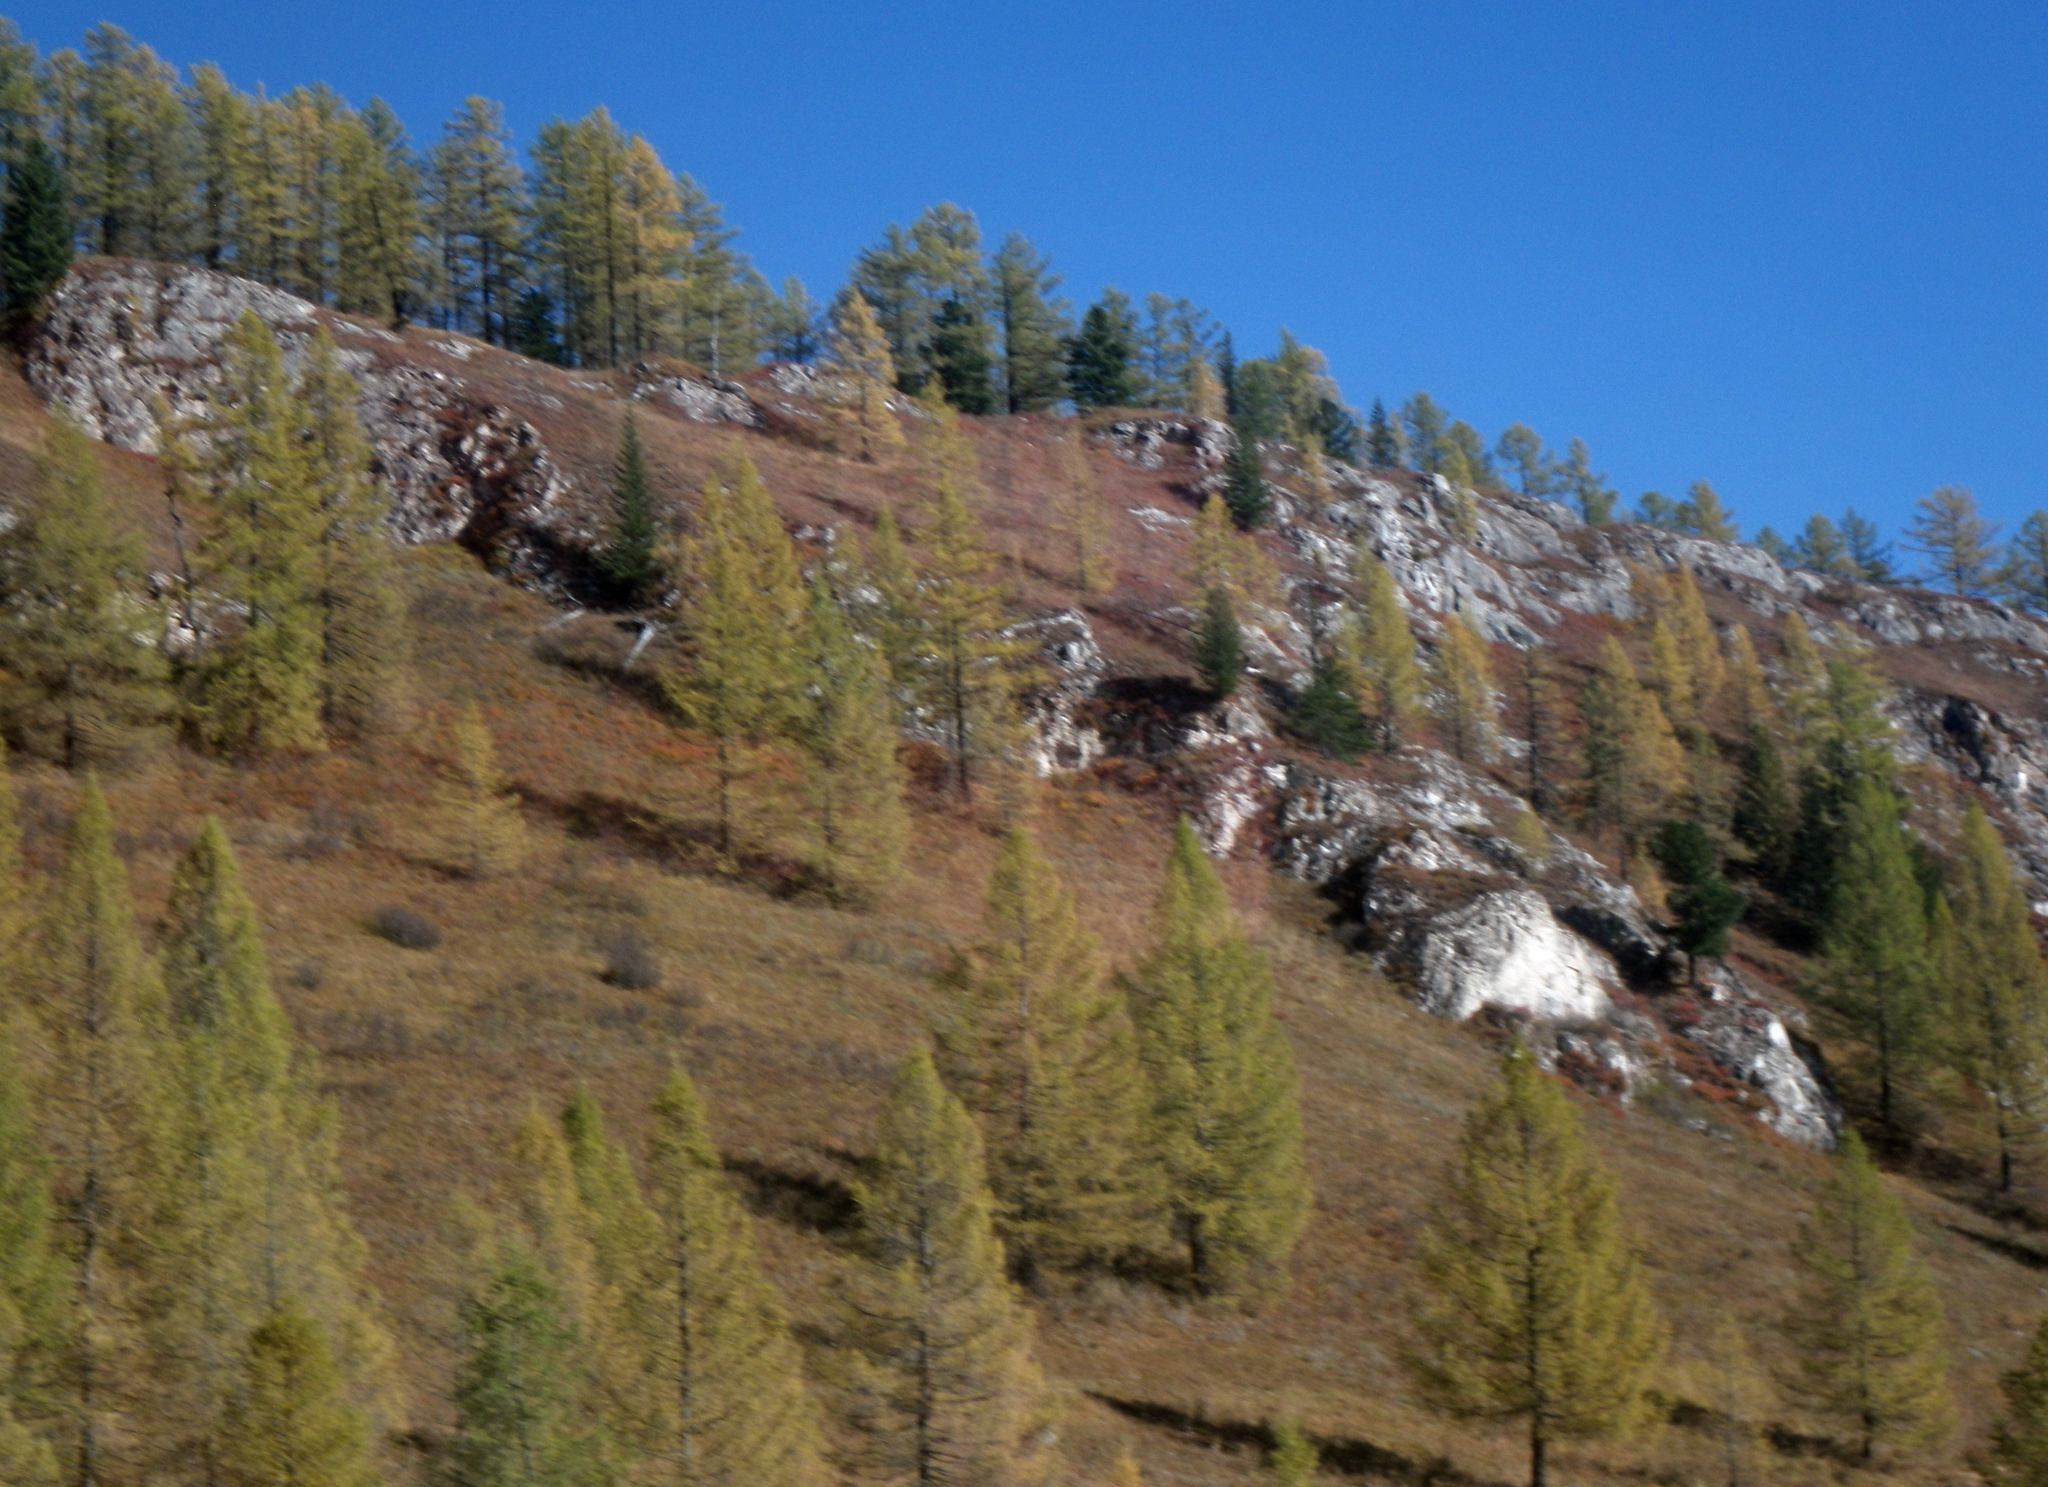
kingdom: Plantae
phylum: Tracheophyta
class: Pinopsida
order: Pinales
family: Pinaceae
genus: Larix
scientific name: Larix sibirica
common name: Siberian larch
